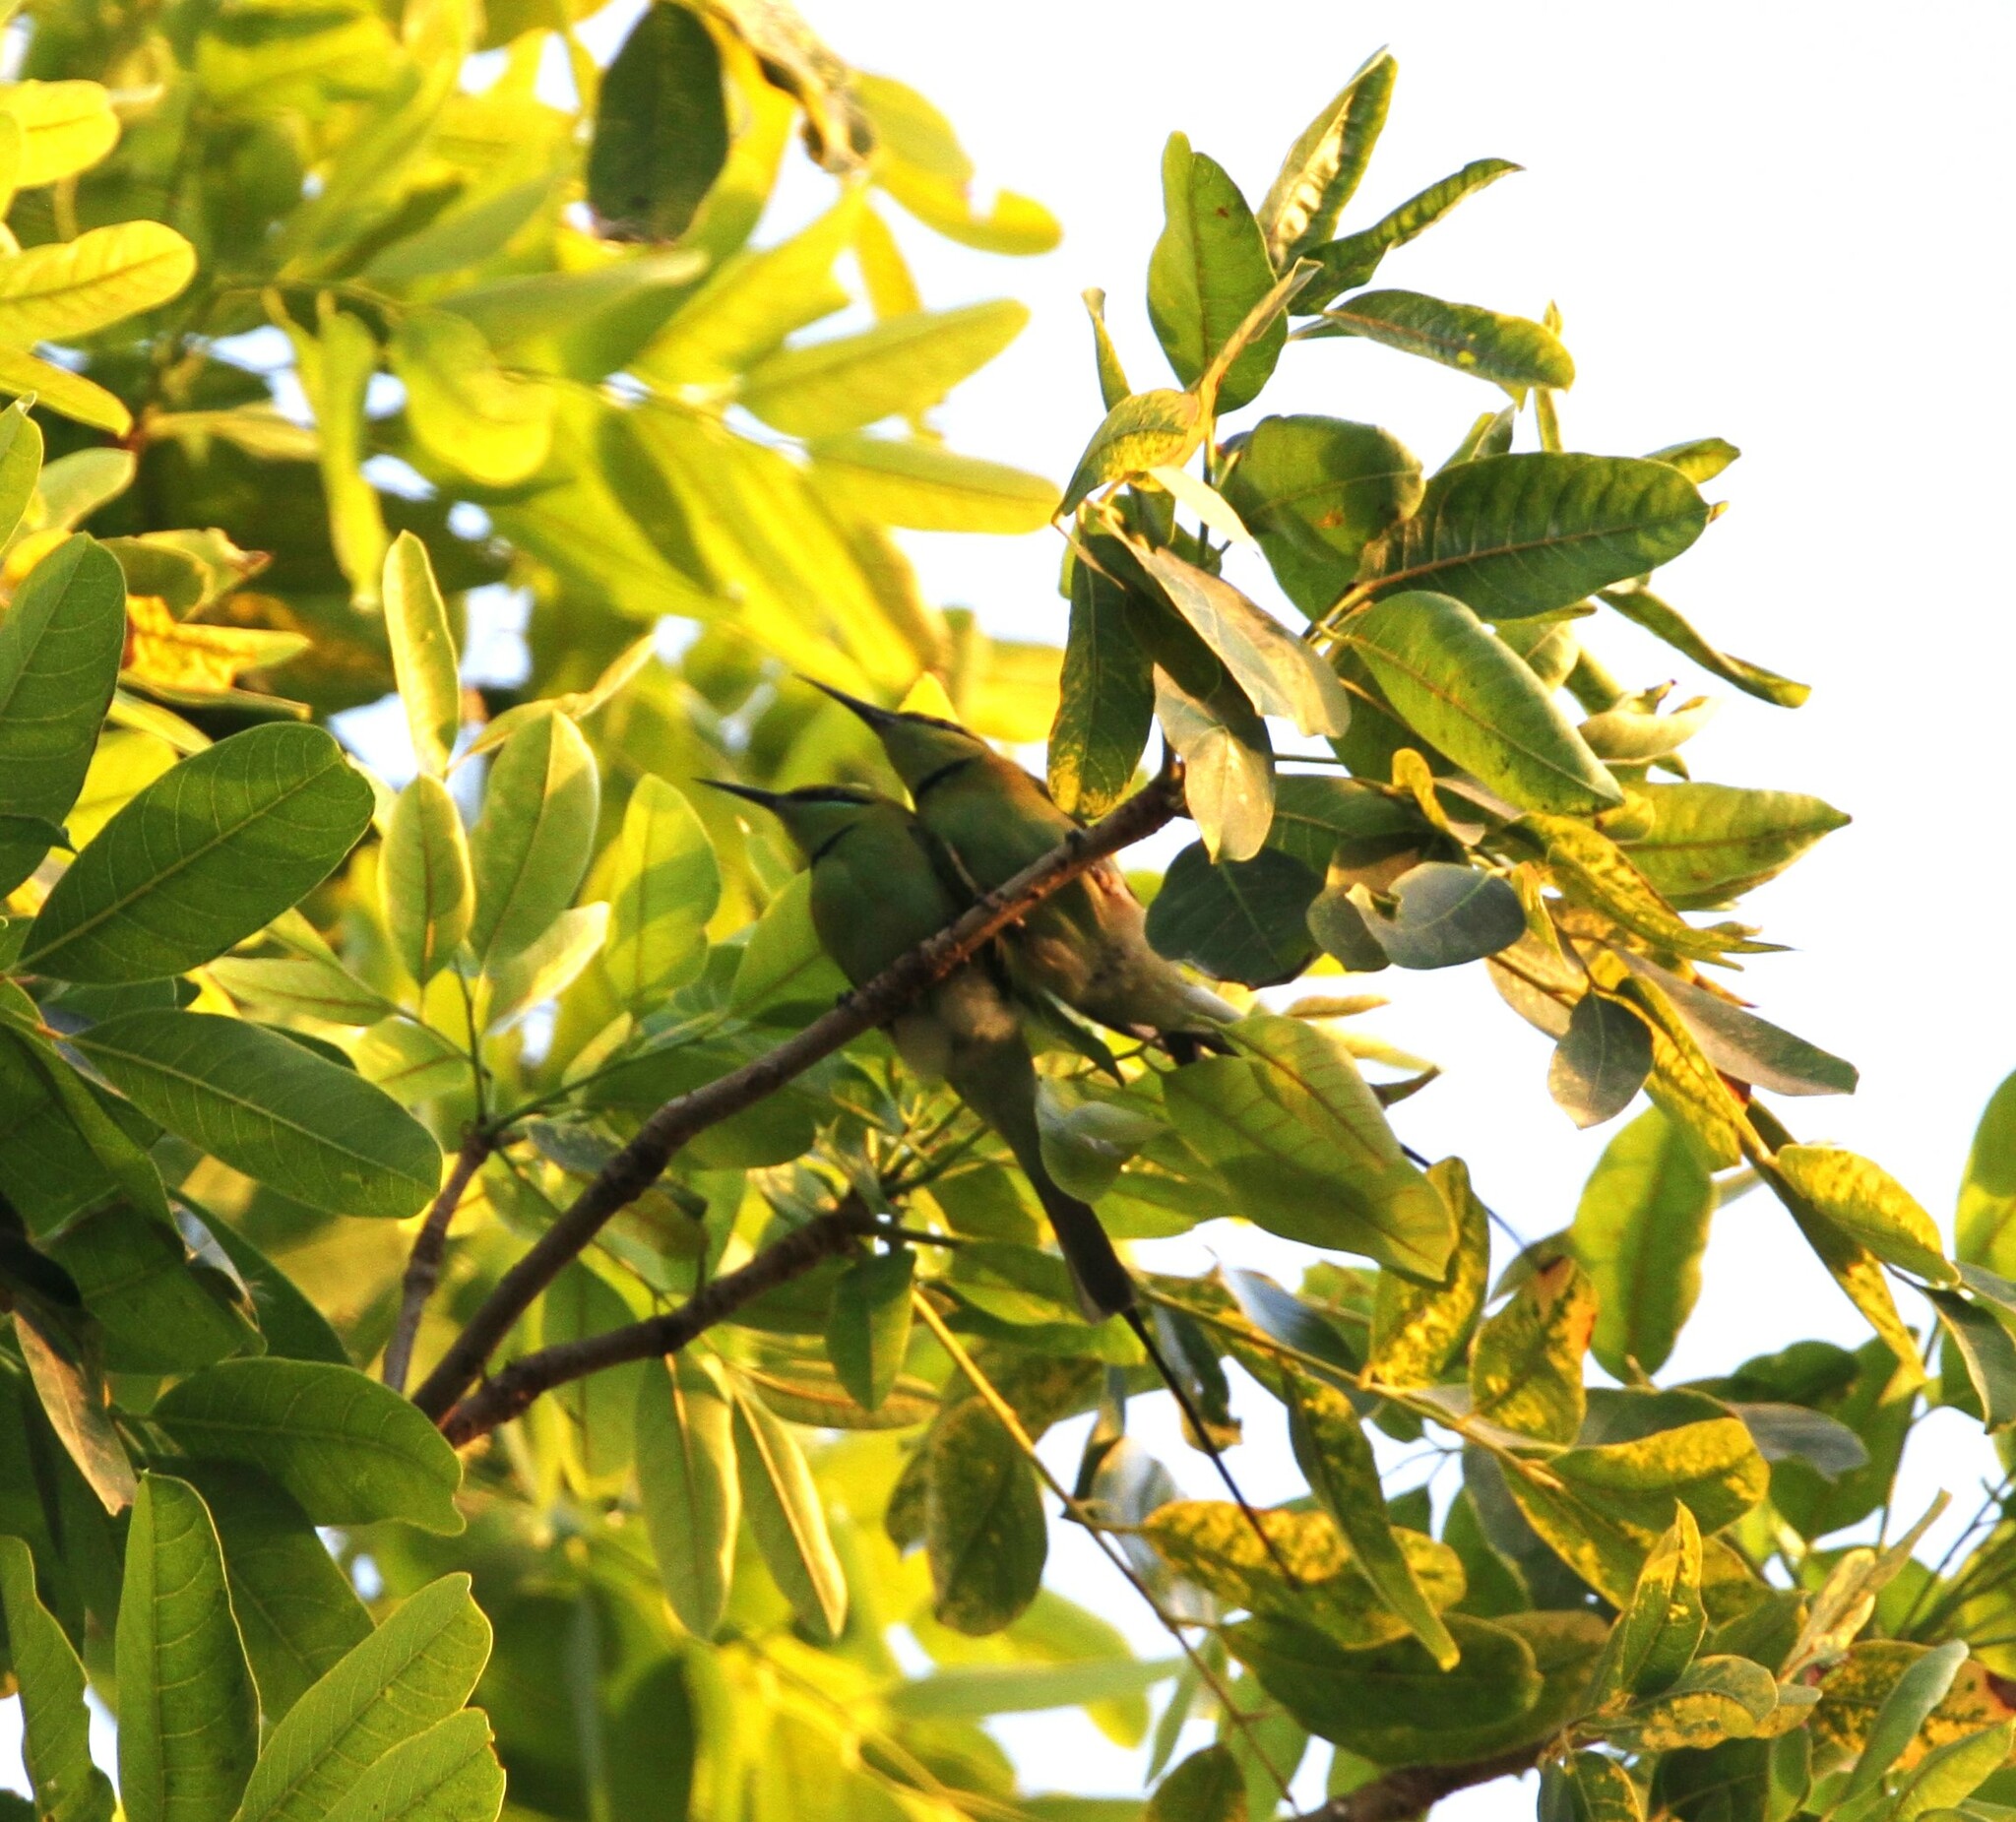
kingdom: Animalia
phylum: Chordata
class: Aves
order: Coraciiformes
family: Meropidae
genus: Merops
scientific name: Merops viridissimus
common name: African green bee-eater
